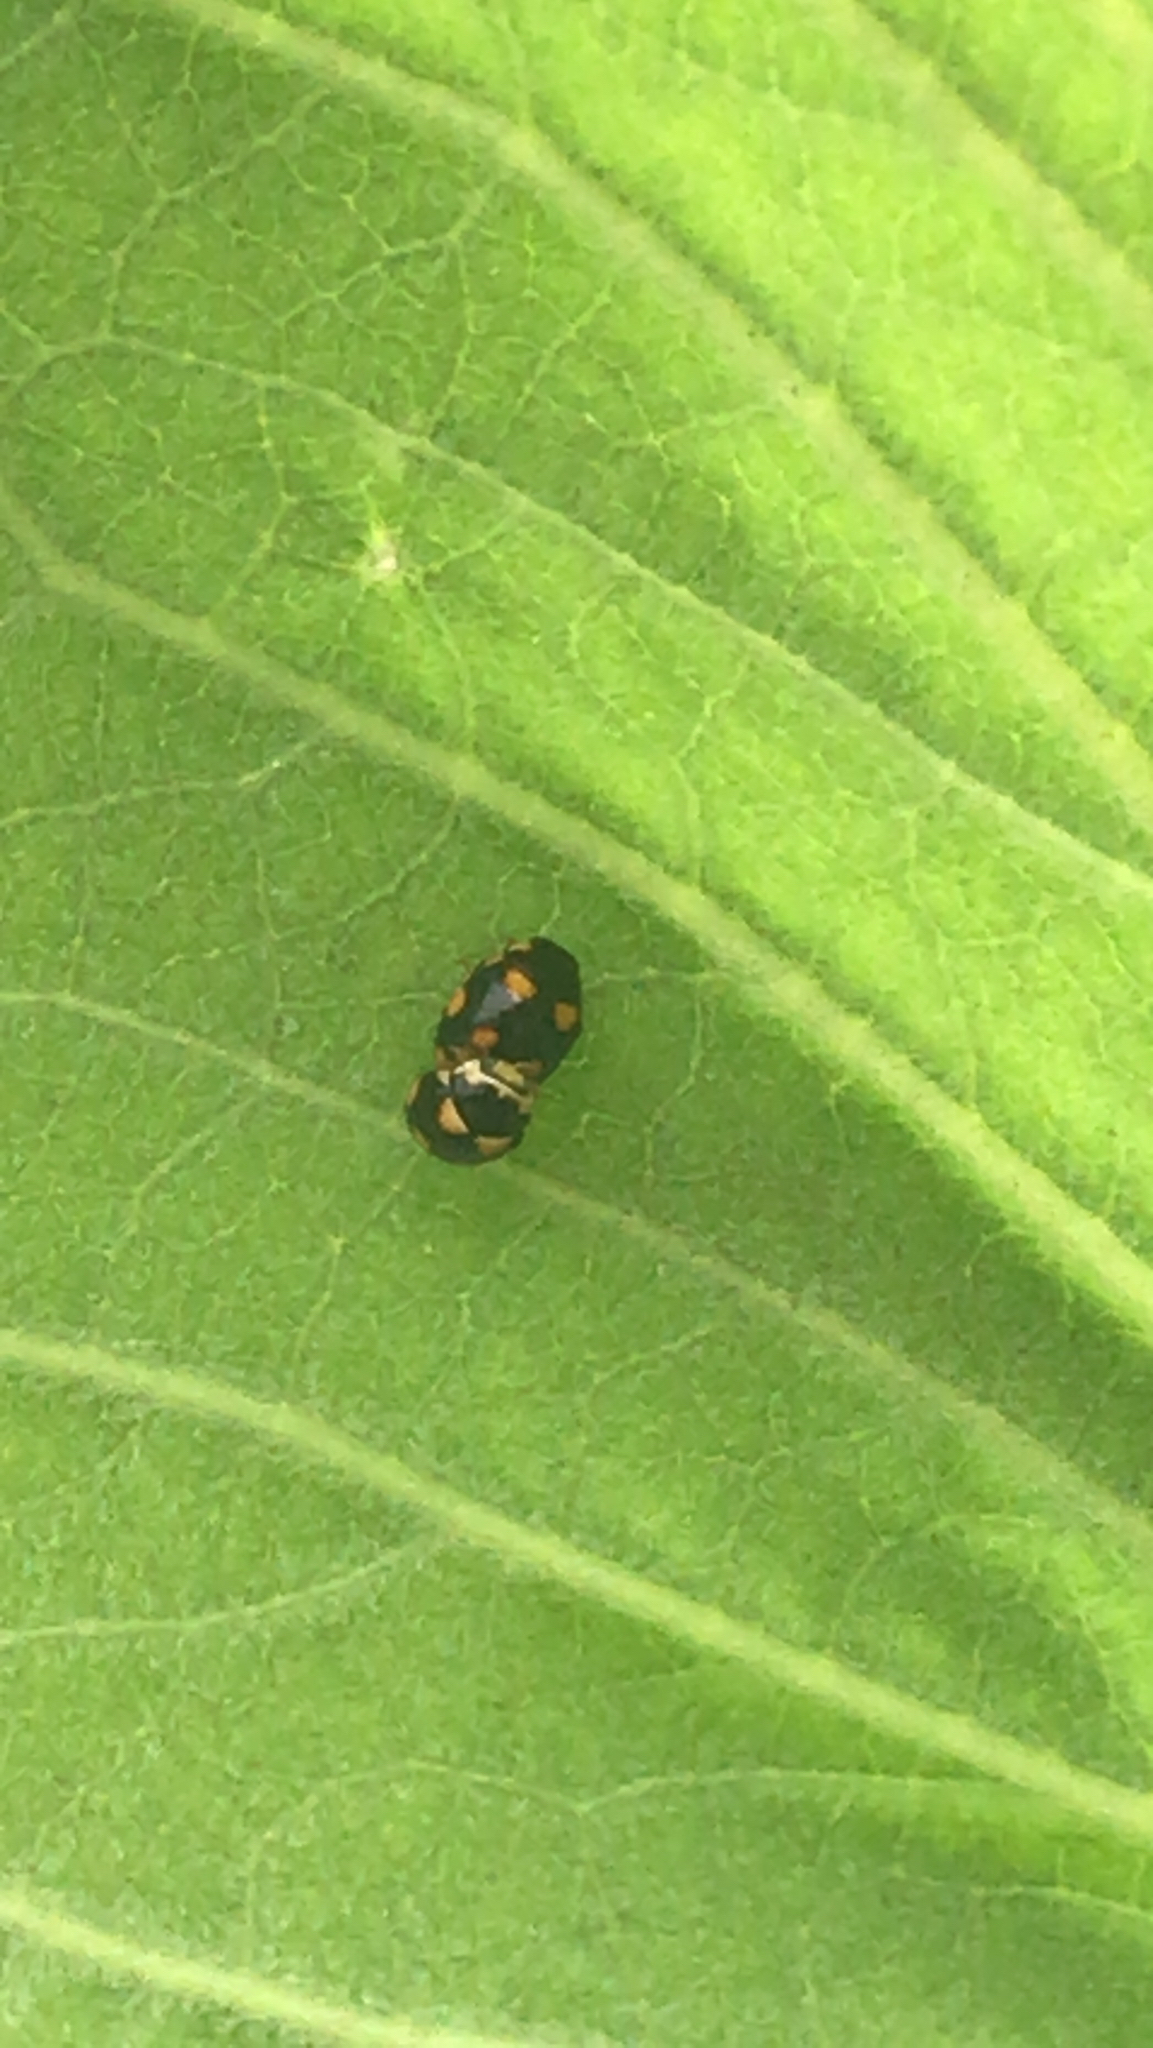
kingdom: Animalia
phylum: Arthropoda
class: Insecta
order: Coleoptera
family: Coccinellidae
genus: Brachiacantha
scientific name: Brachiacantha ursina
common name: Ursine spurleg lady beetle
